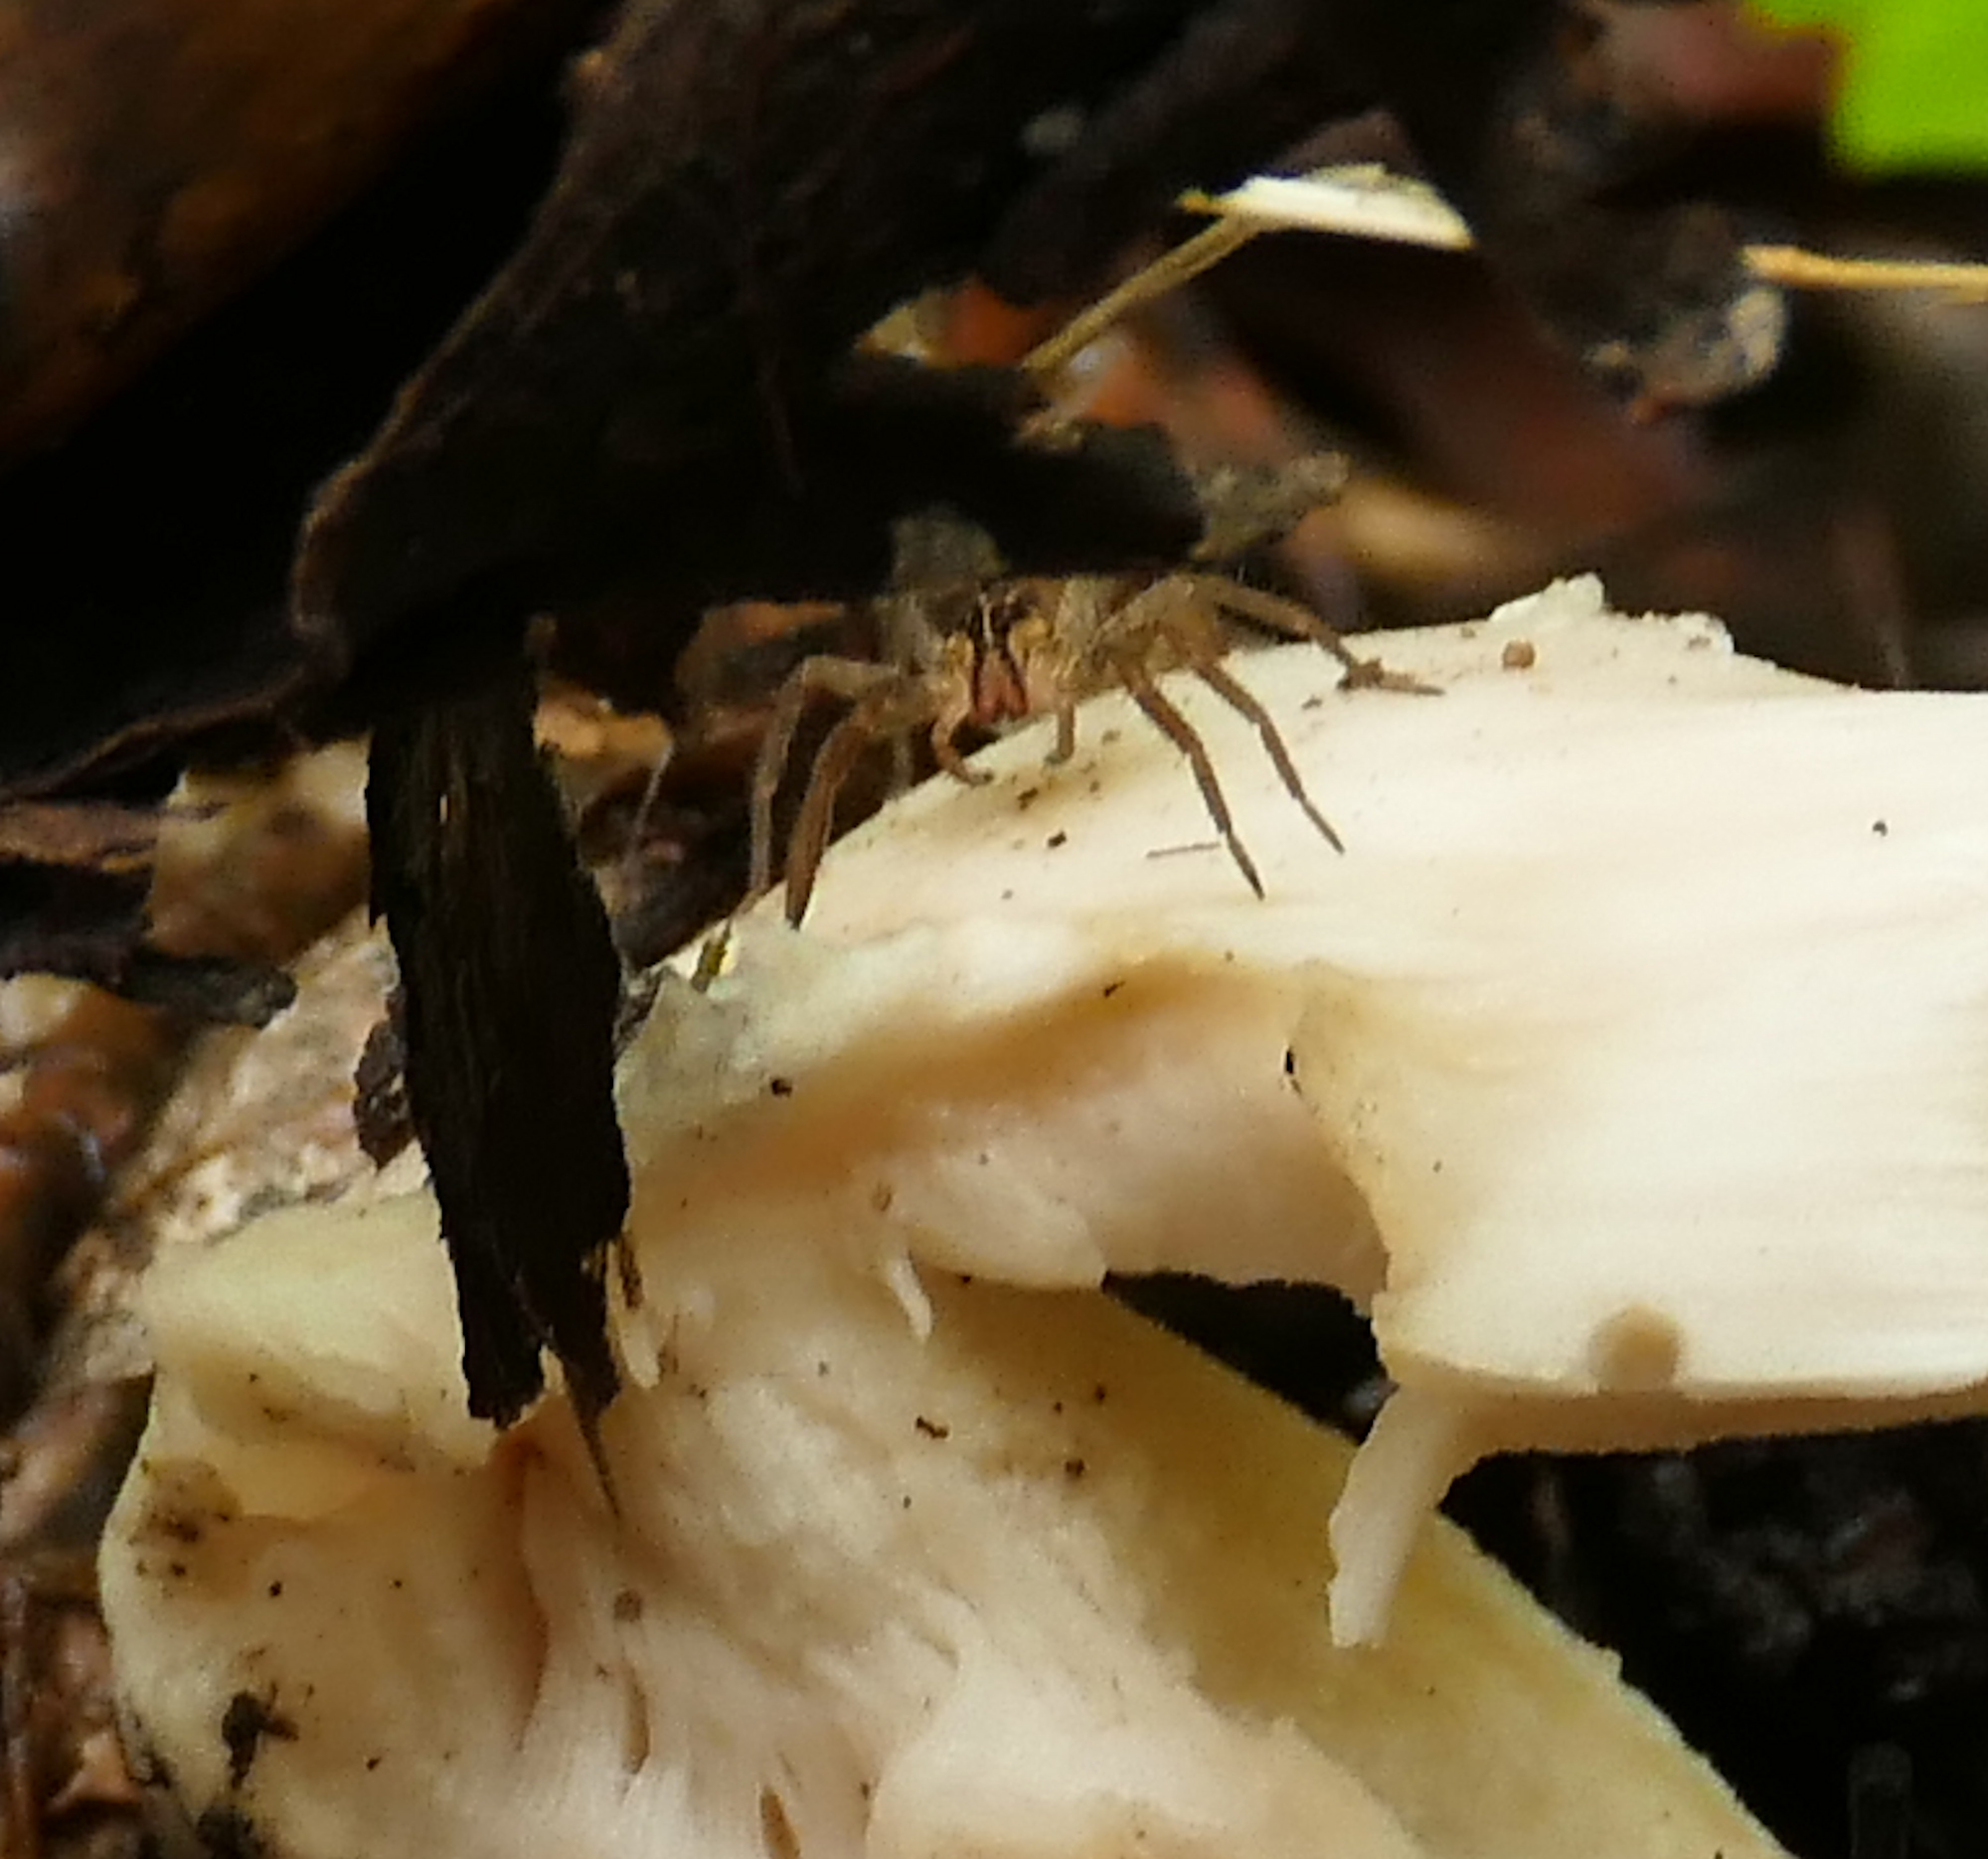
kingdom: Animalia
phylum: Arthropoda
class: Arachnida
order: Araneae
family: Lycosidae
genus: Rabidosa
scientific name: Rabidosa santrita
